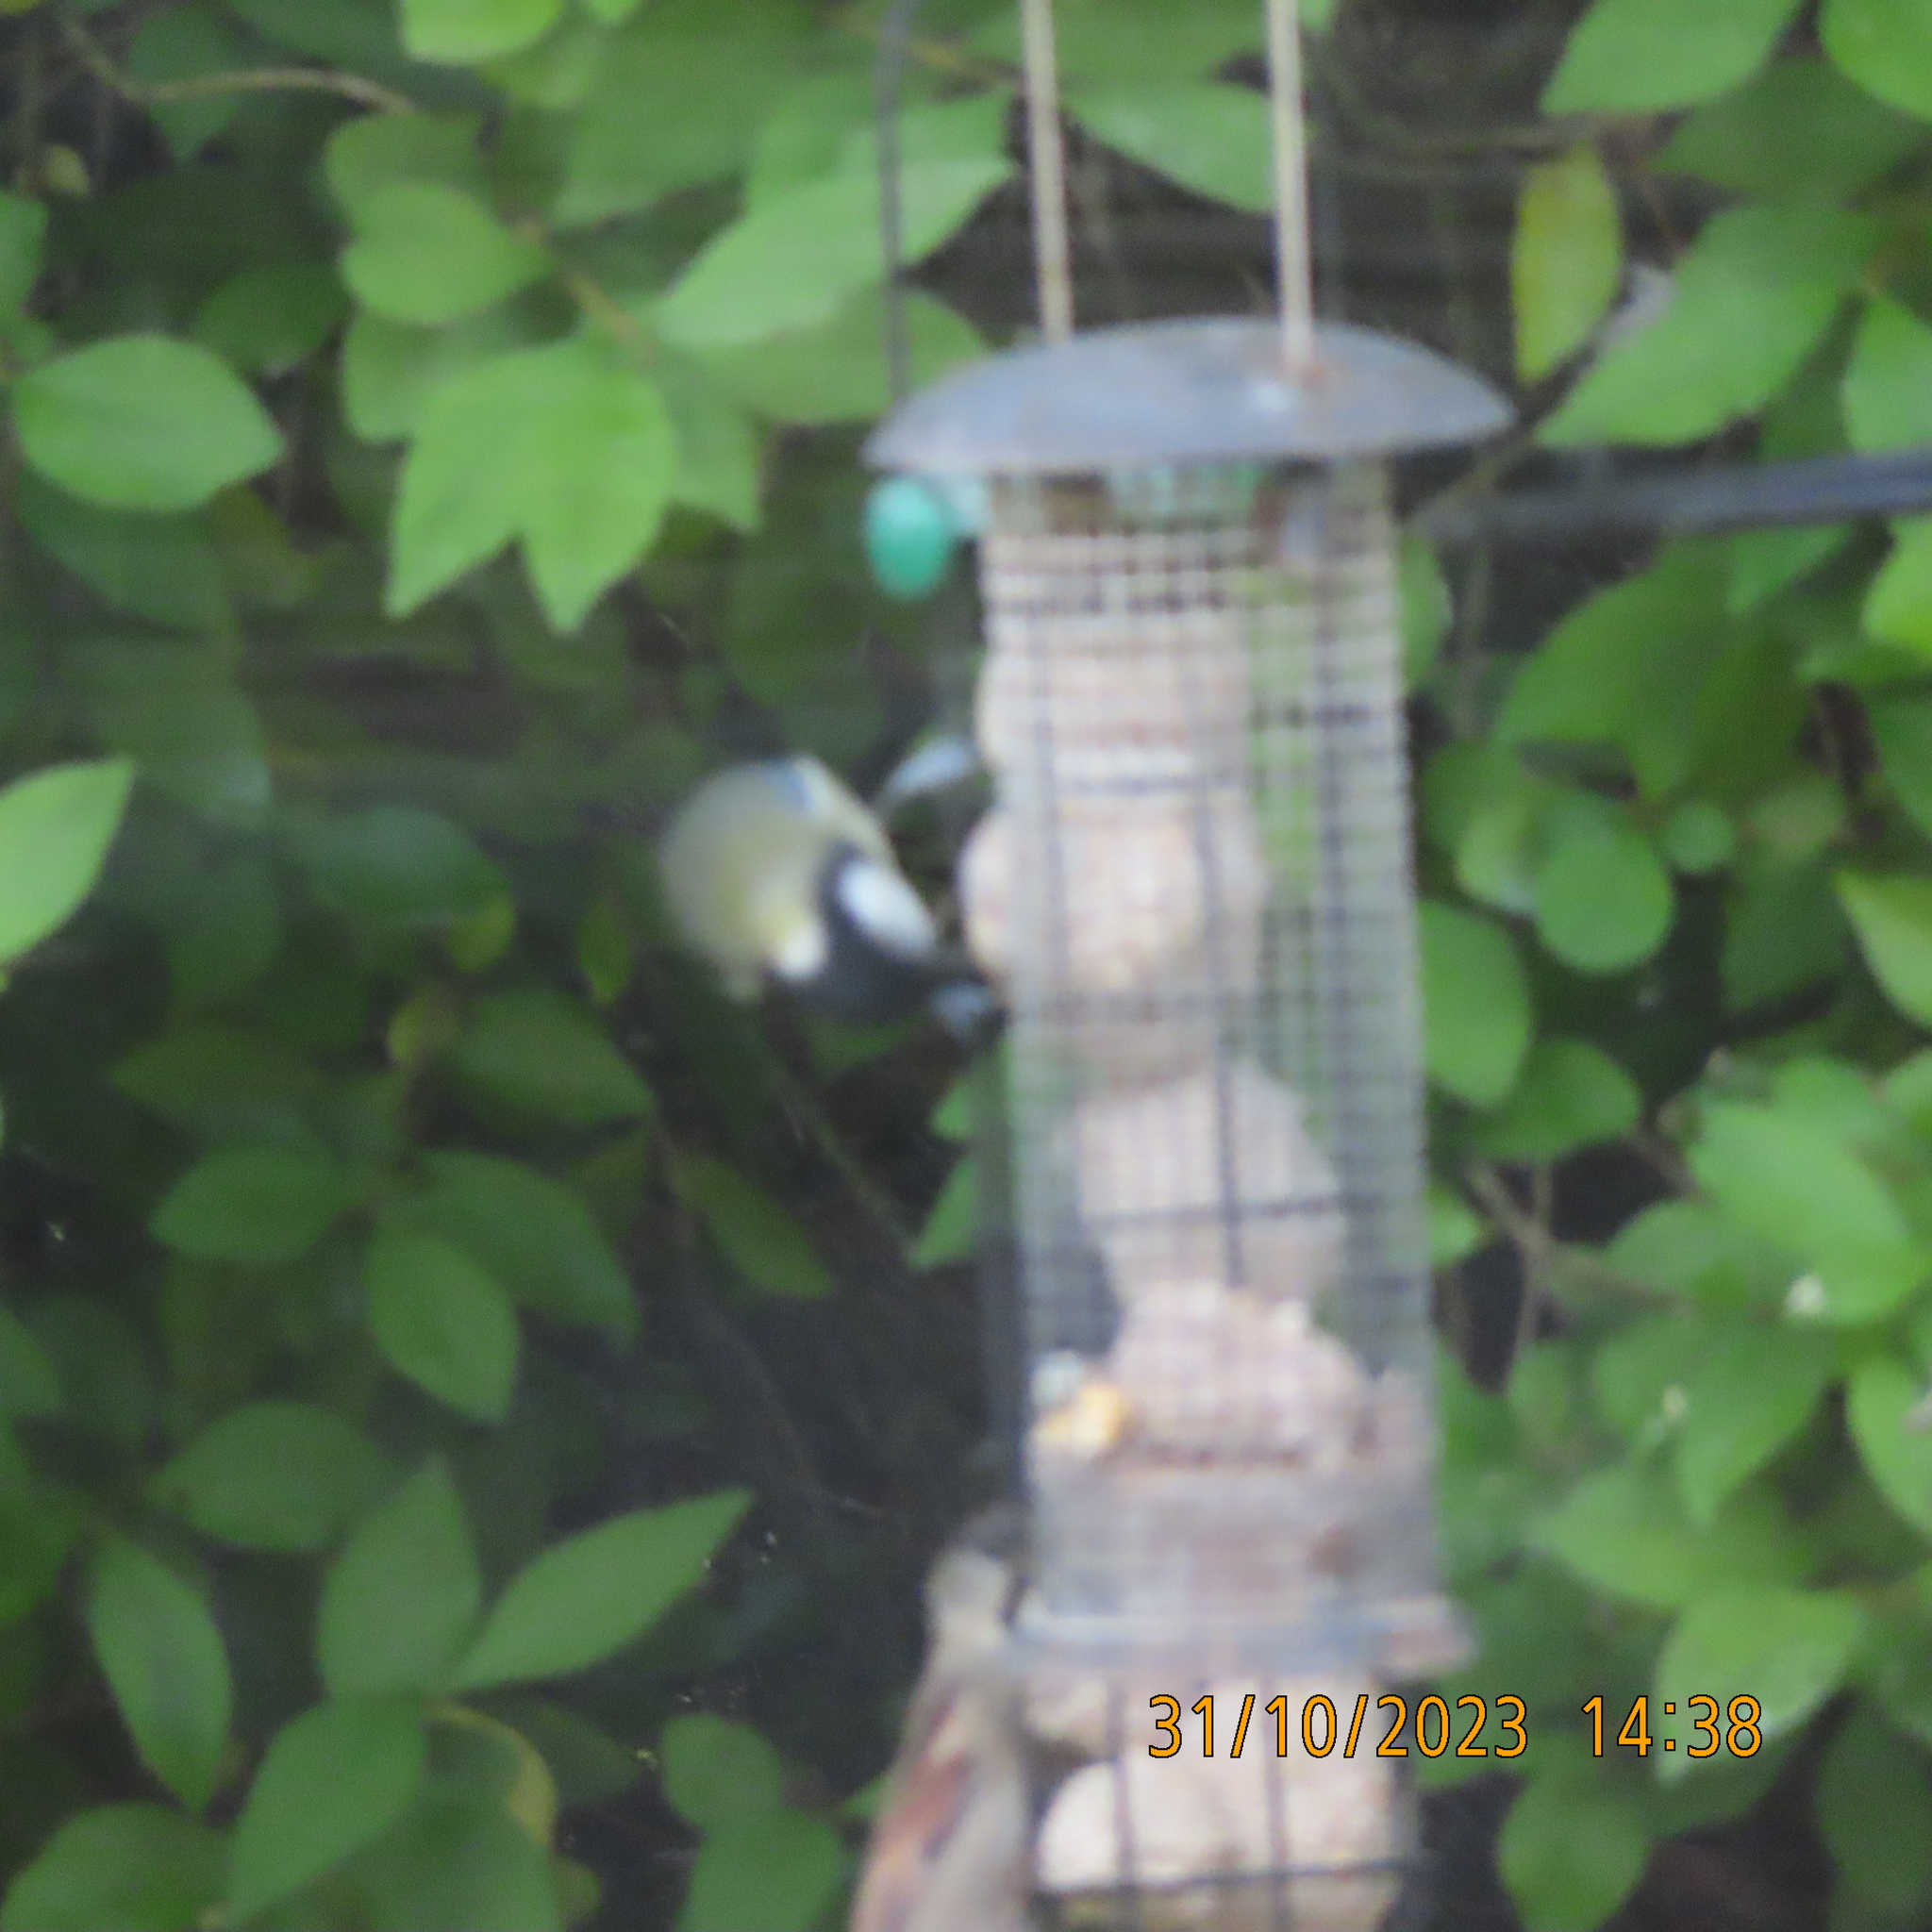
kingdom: Animalia
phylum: Chordata
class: Aves
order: Passeriformes
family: Paridae
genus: Parus
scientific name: Parus major
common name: Great tit
